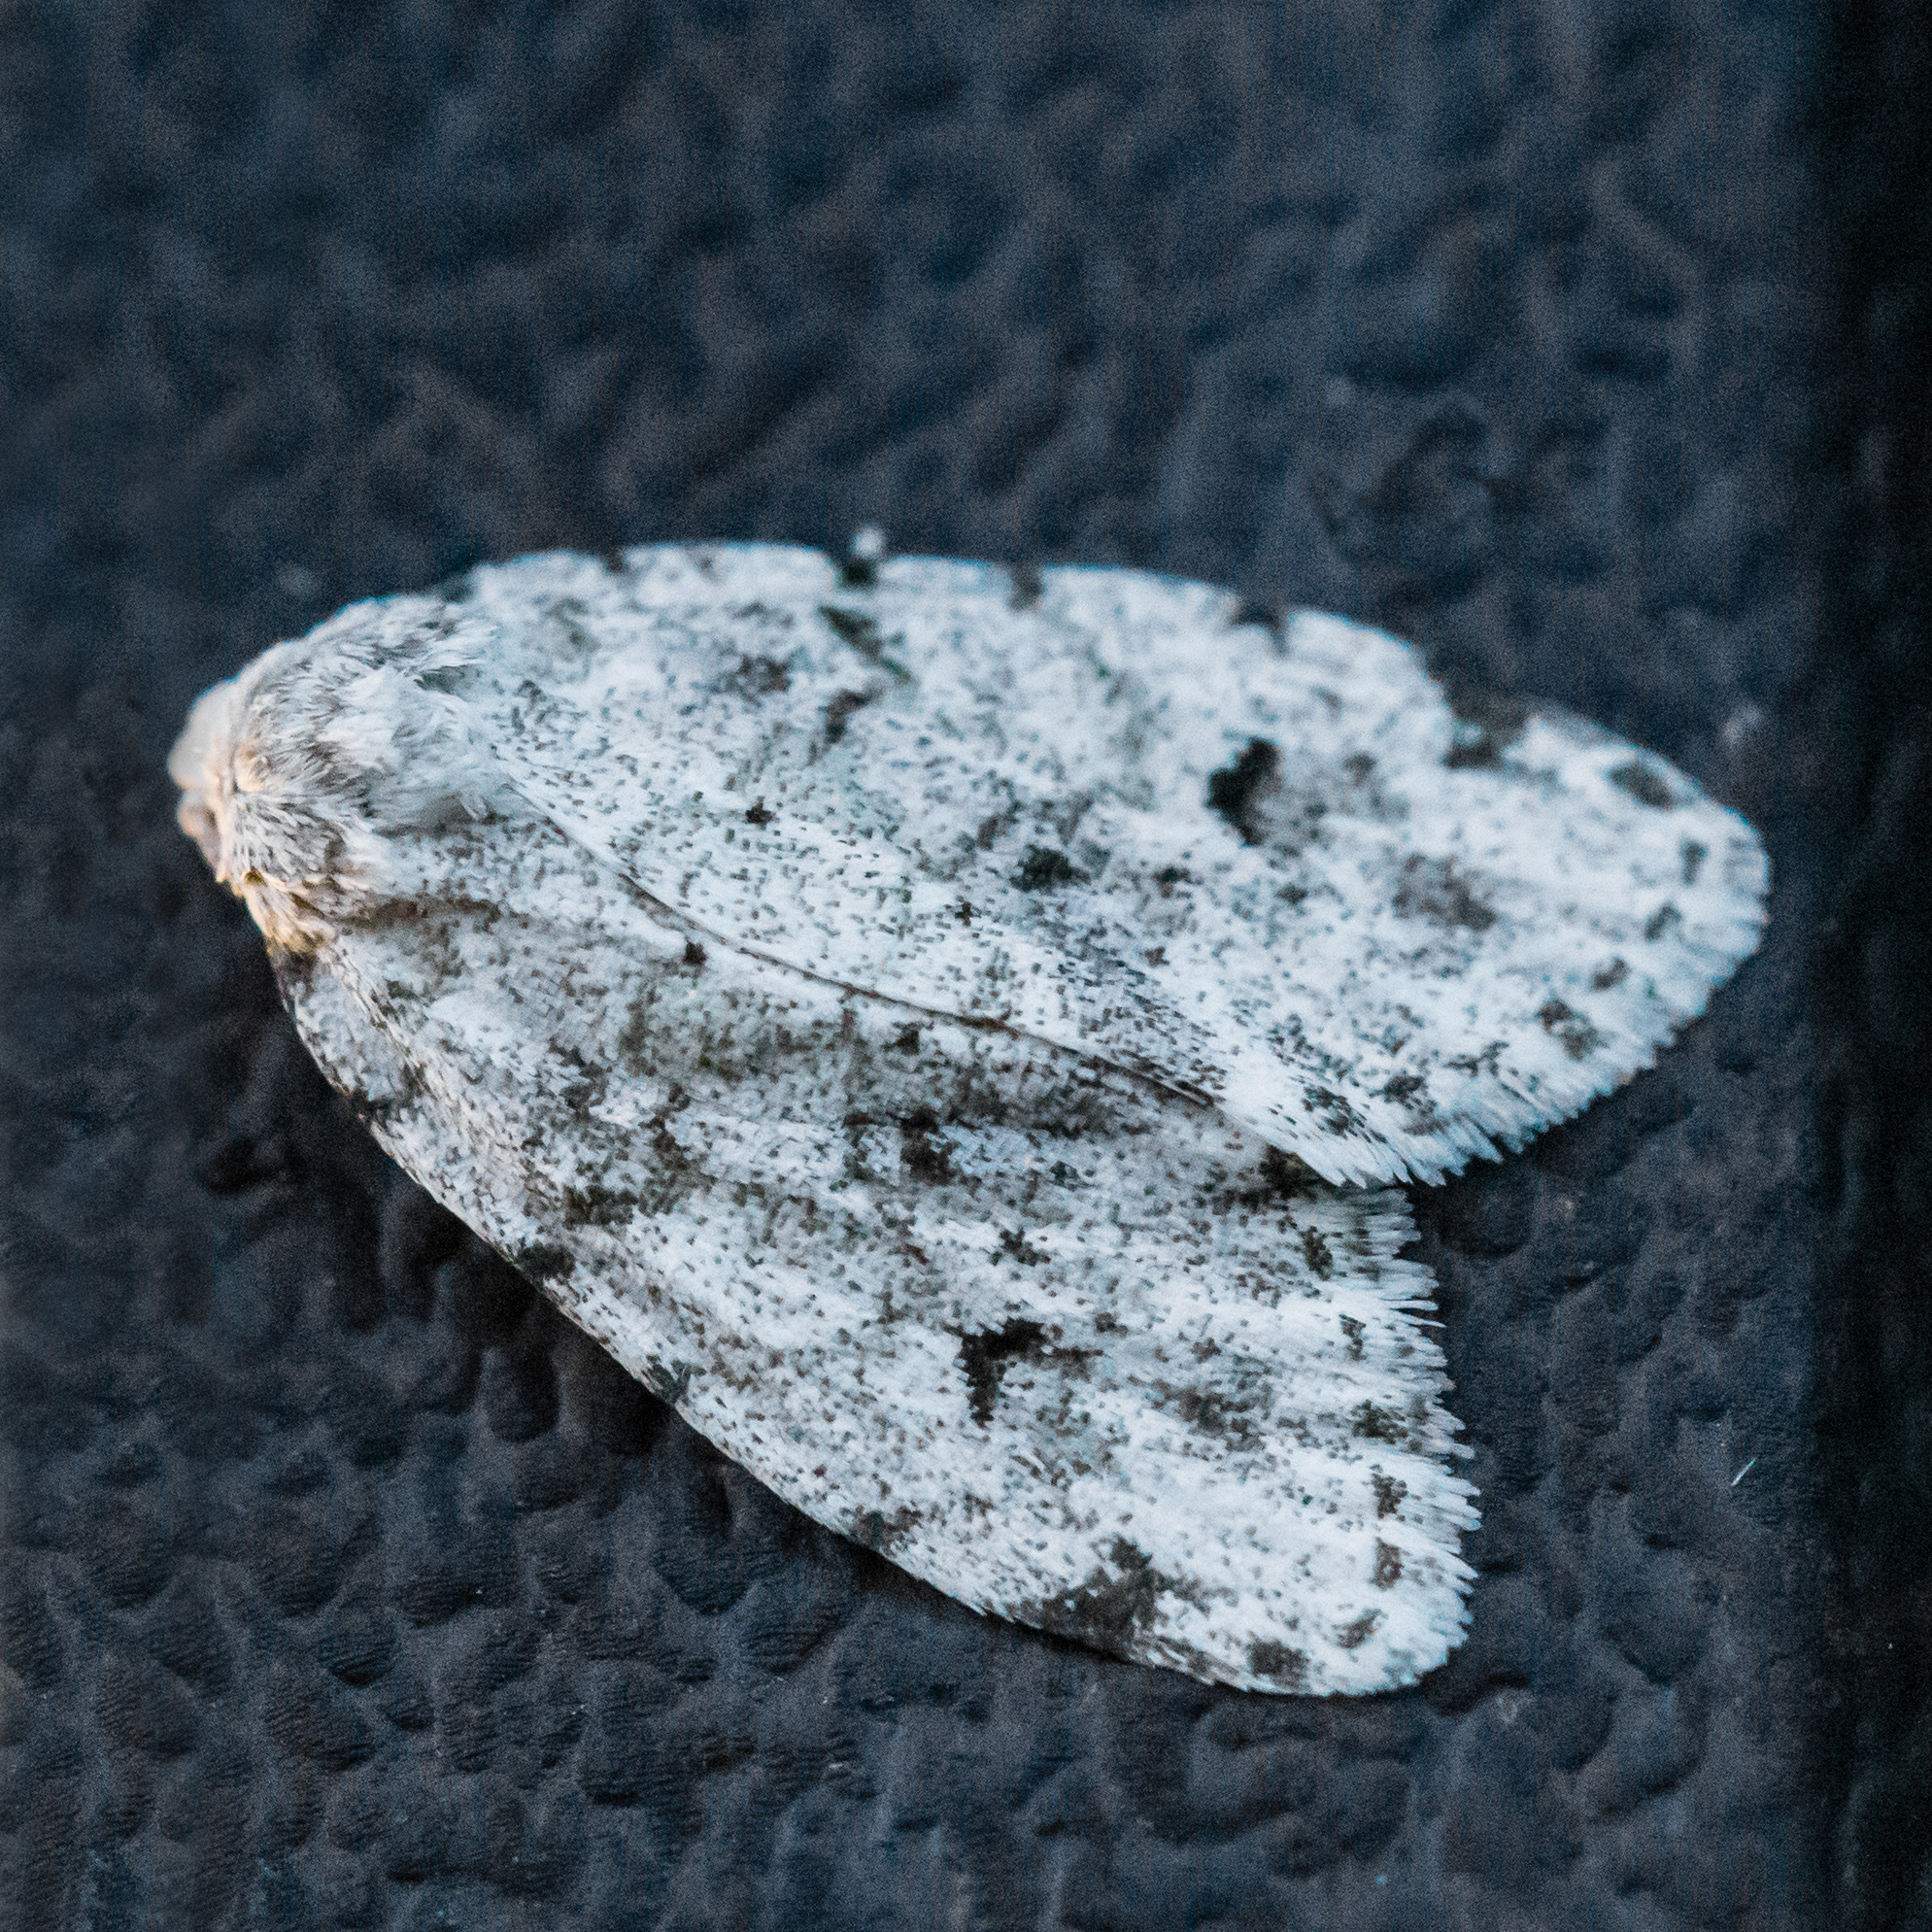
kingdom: Animalia
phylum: Arthropoda
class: Insecta
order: Lepidoptera
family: Erebidae
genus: Clemensia
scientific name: Clemensia albata
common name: Little white lichen moth
